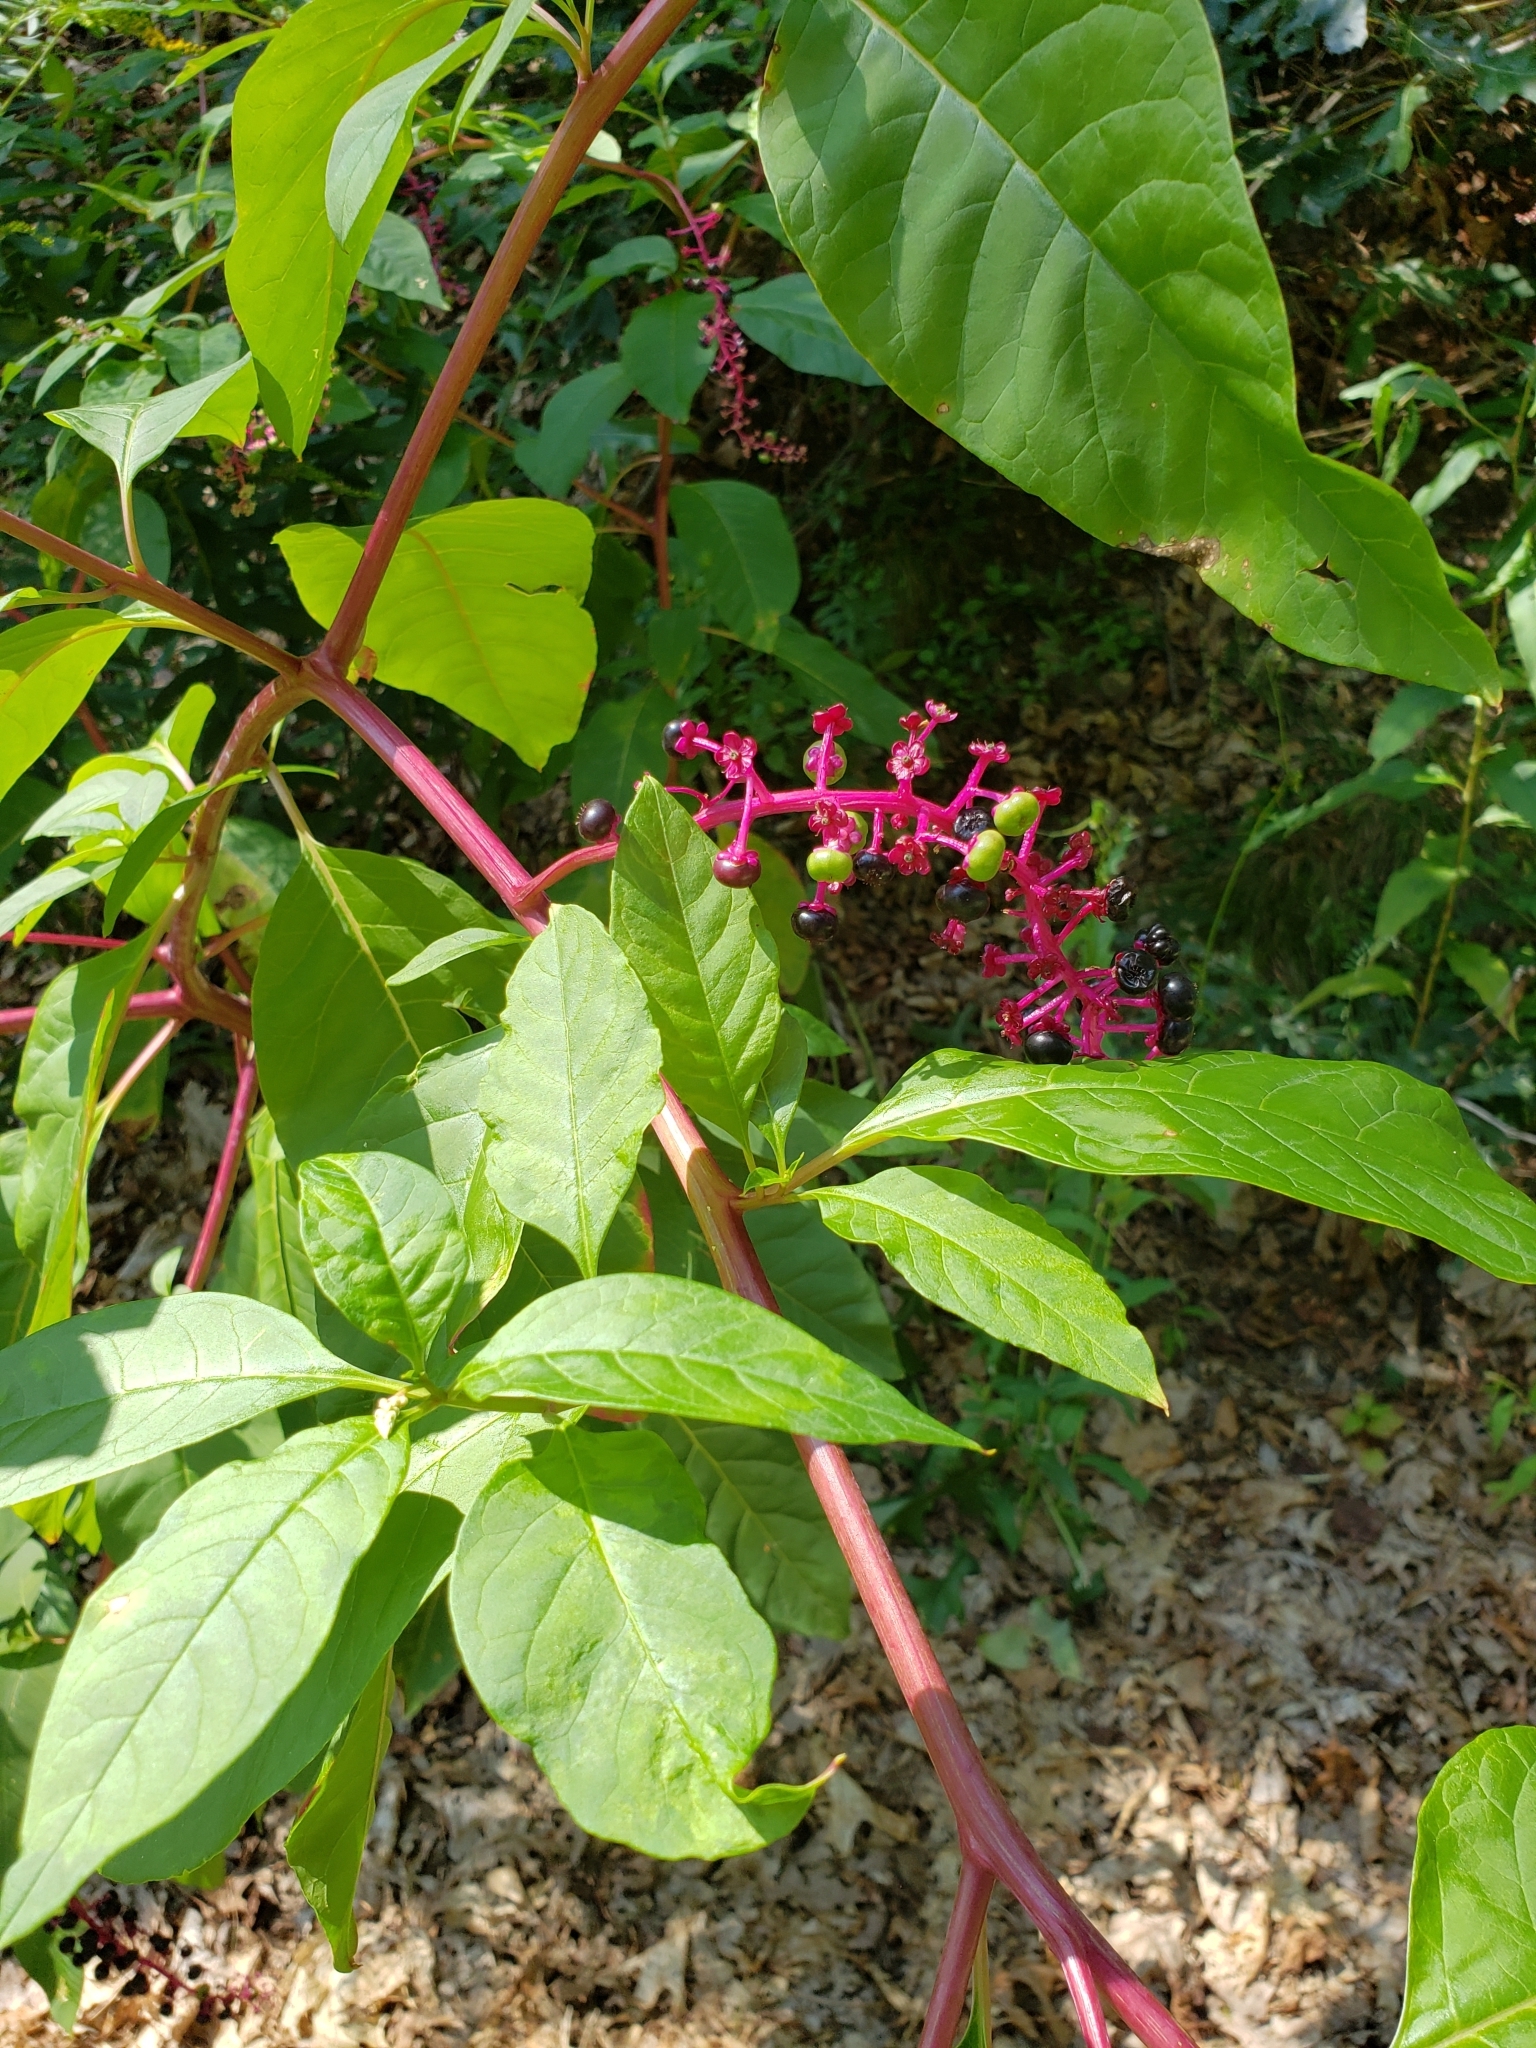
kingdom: Plantae
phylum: Tracheophyta
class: Magnoliopsida
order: Caryophyllales
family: Phytolaccaceae
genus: Phytolacca
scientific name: Phytolacca americana
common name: American pokeweed
